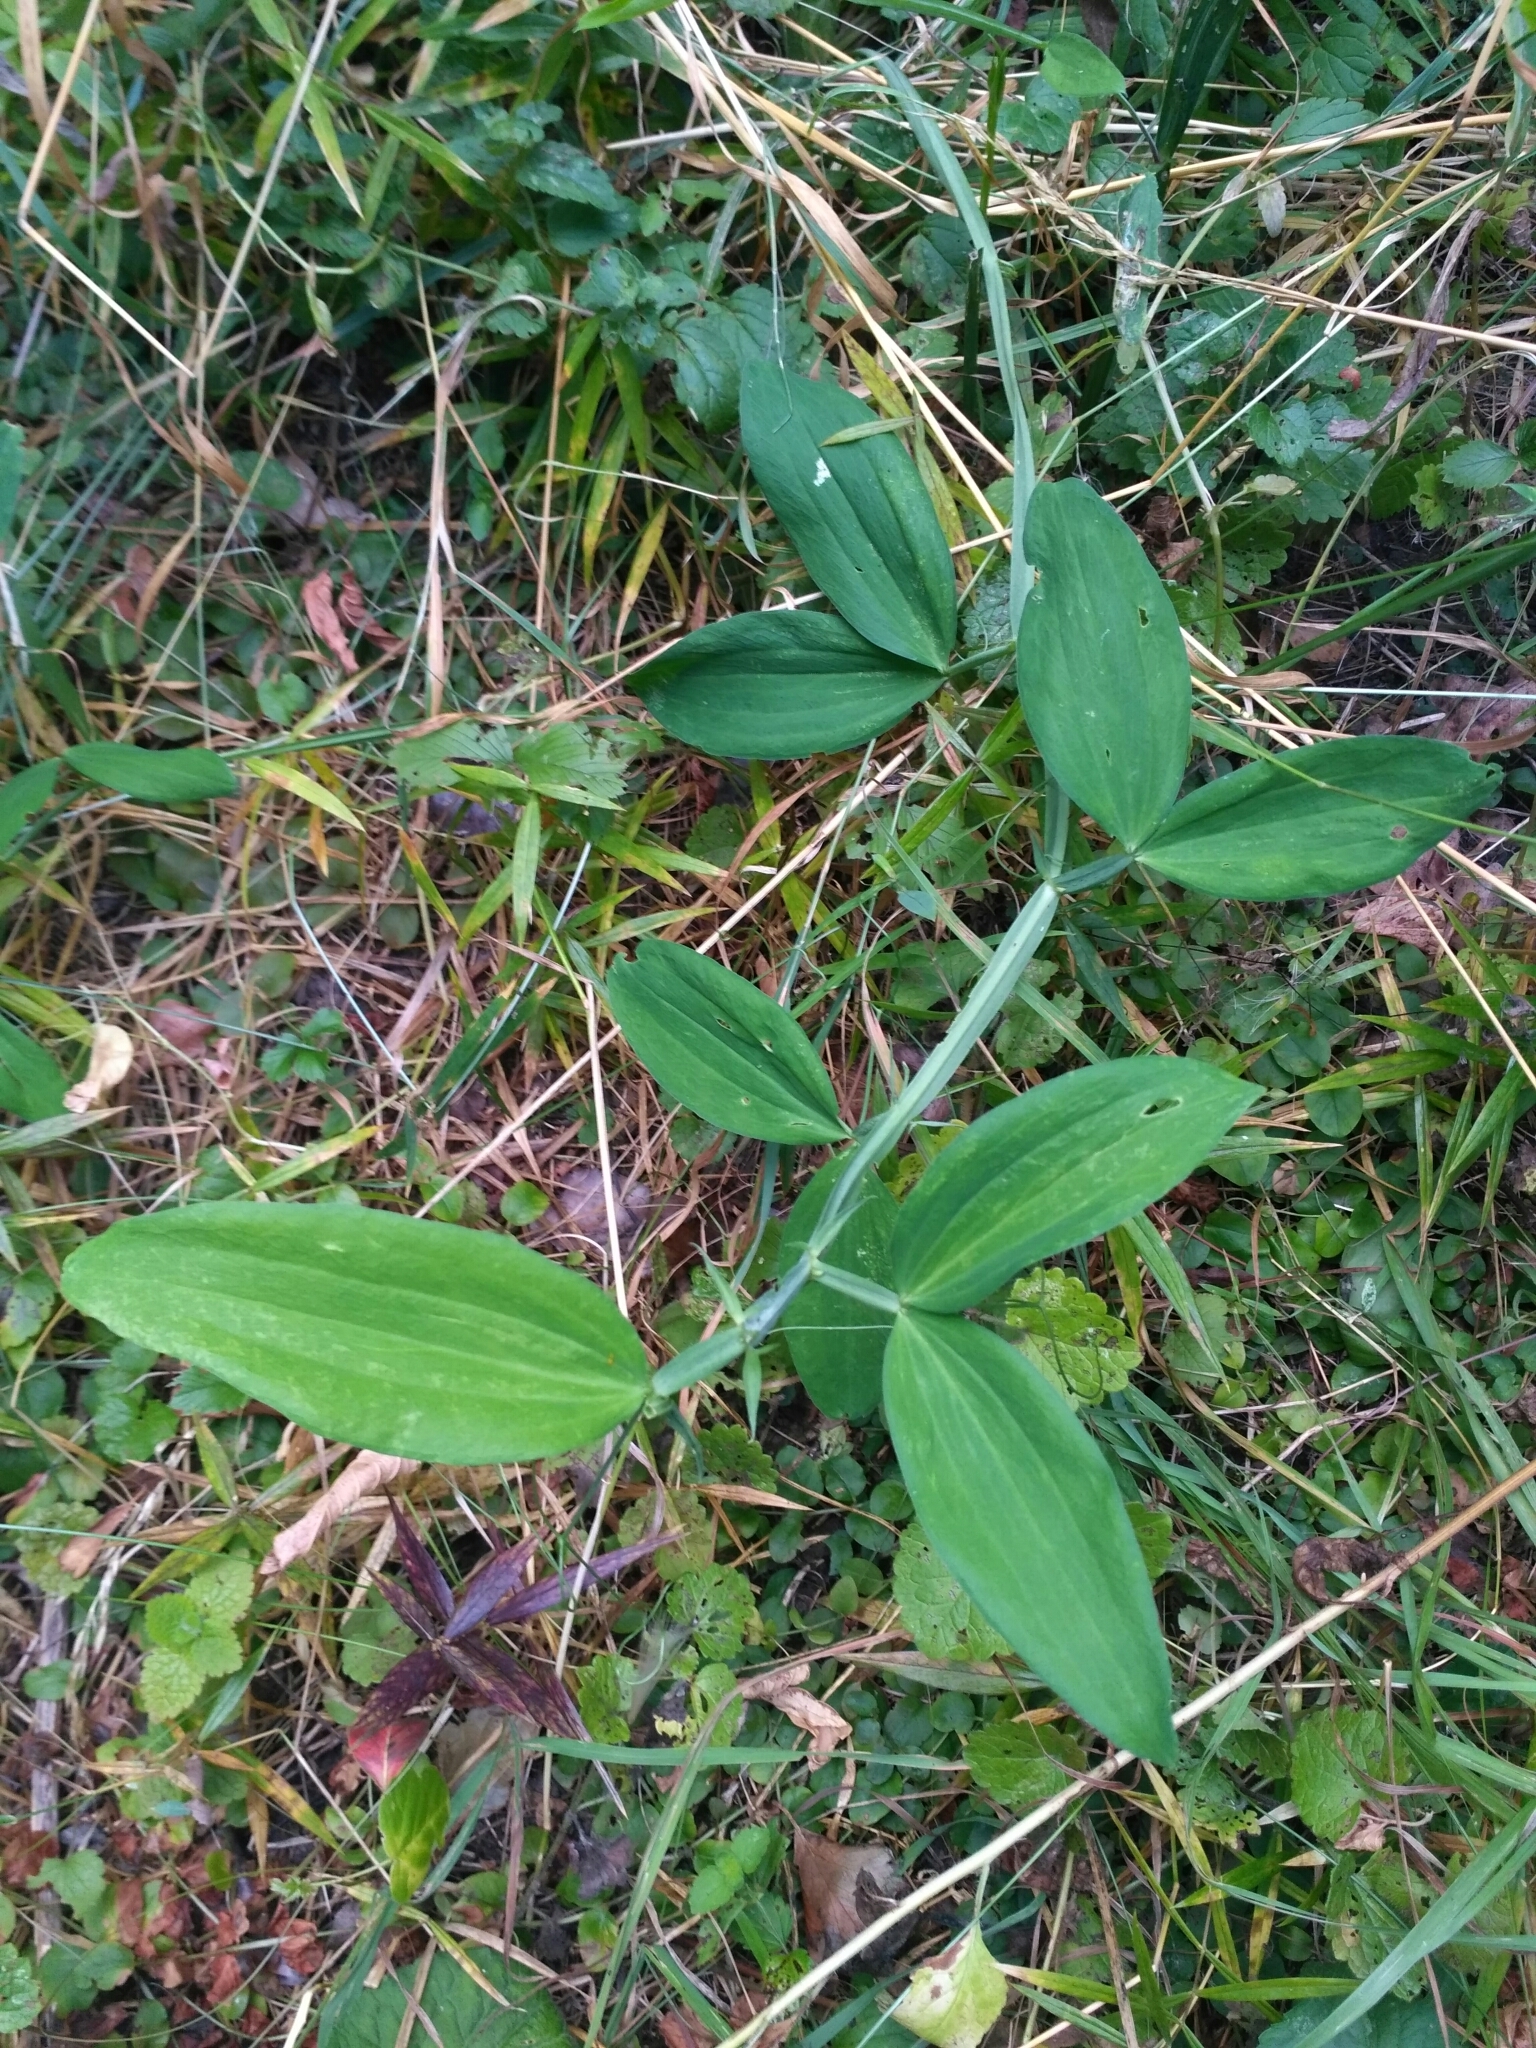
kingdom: Plantae
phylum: Tracheophyta
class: Magnoliopsida
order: Fabales
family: Fabaceae
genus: Lathyrus
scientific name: Lathyrus sylvestris
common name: Flat pea
